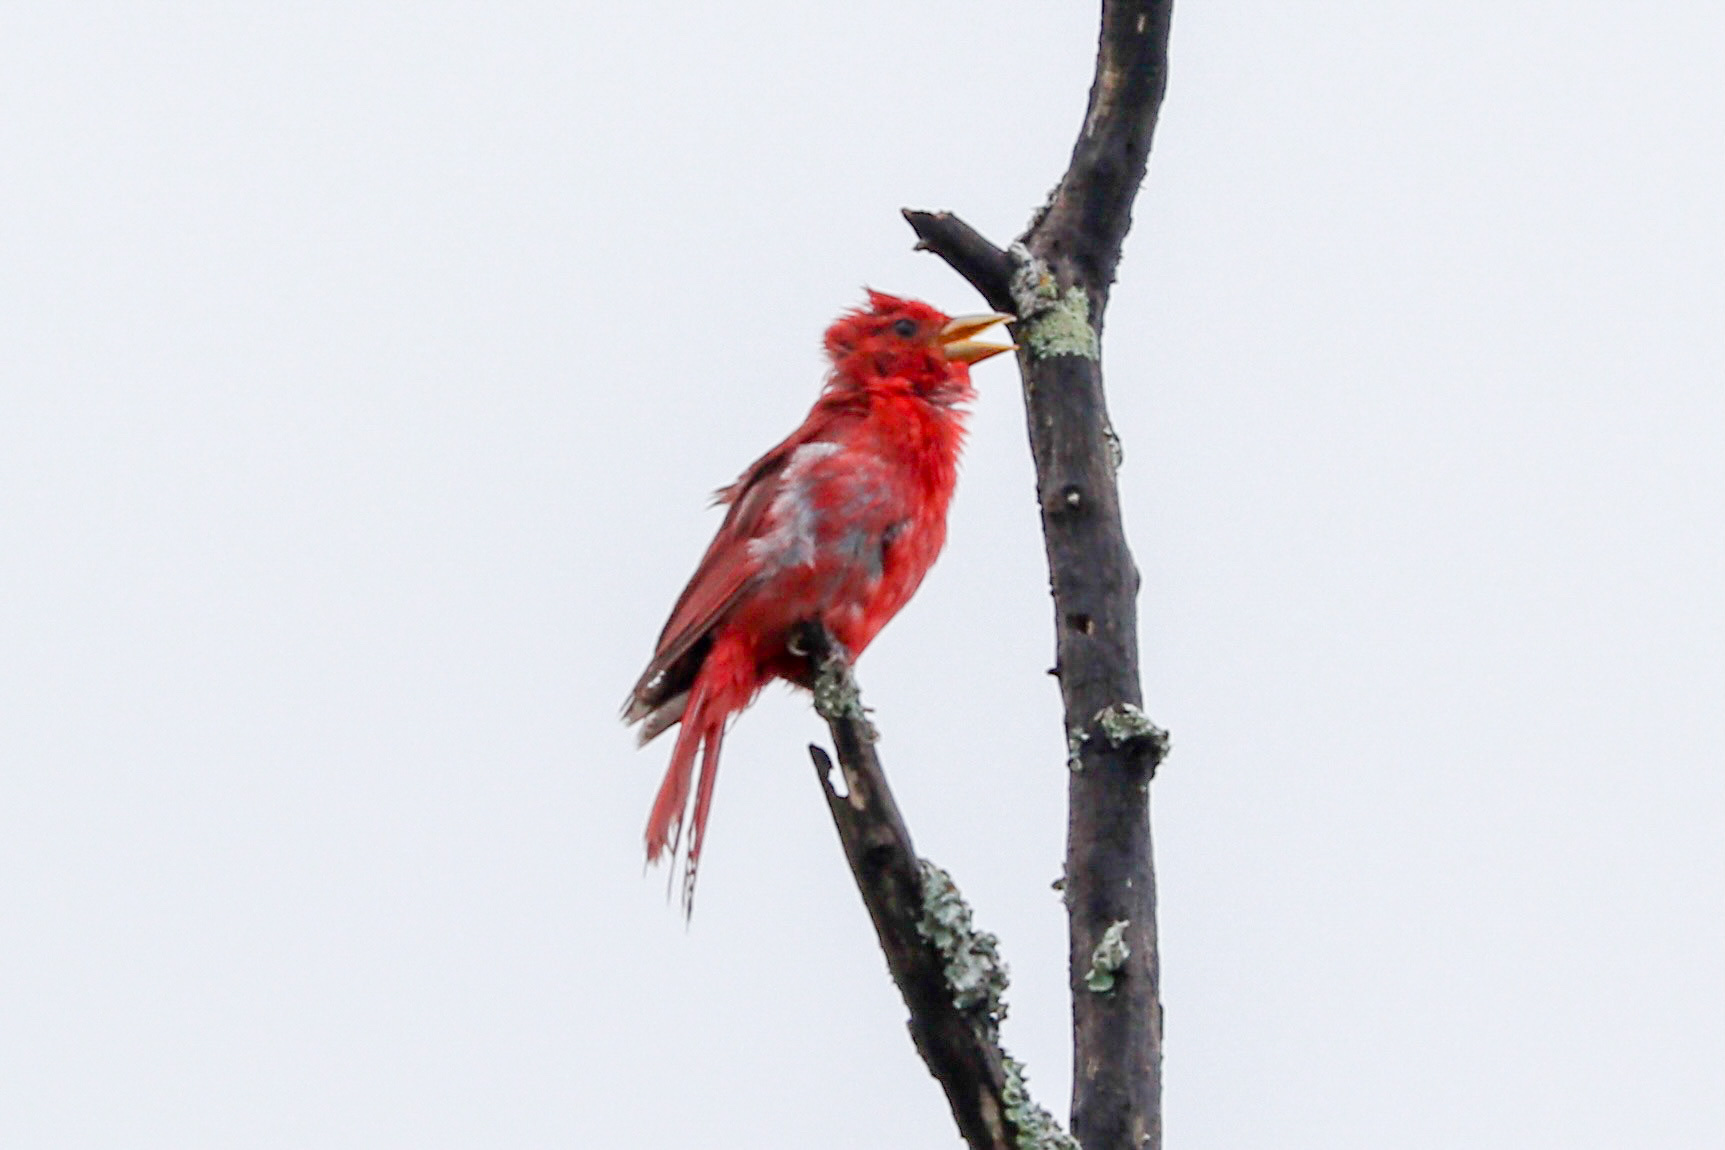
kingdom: Animalia
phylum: Chordata
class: Aves
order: Passeriformes
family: Cardinalidae
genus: Piranga
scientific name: Piranga rubra
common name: Summer tanager
